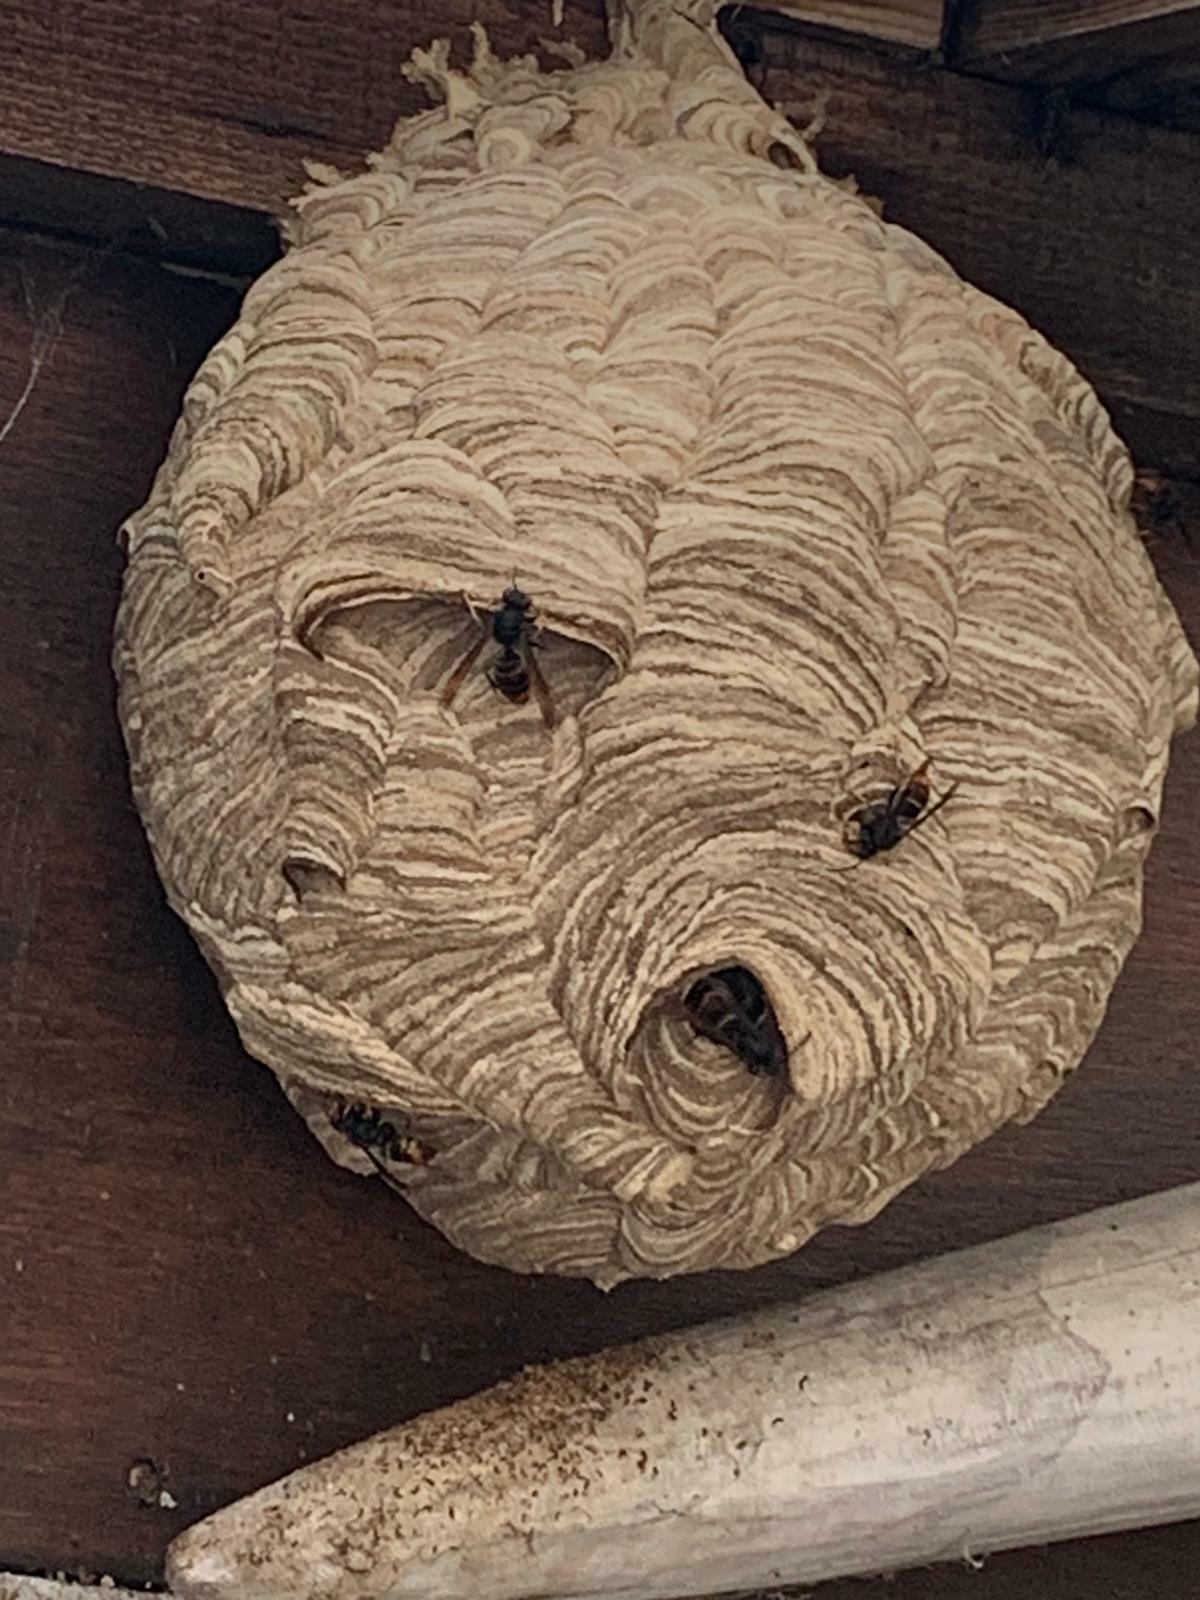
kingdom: Animalia
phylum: Arthropoda
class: Insecta
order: Hymenoptera
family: Vespidae
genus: Vespa
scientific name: Vespa velutina
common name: Asian hornet
